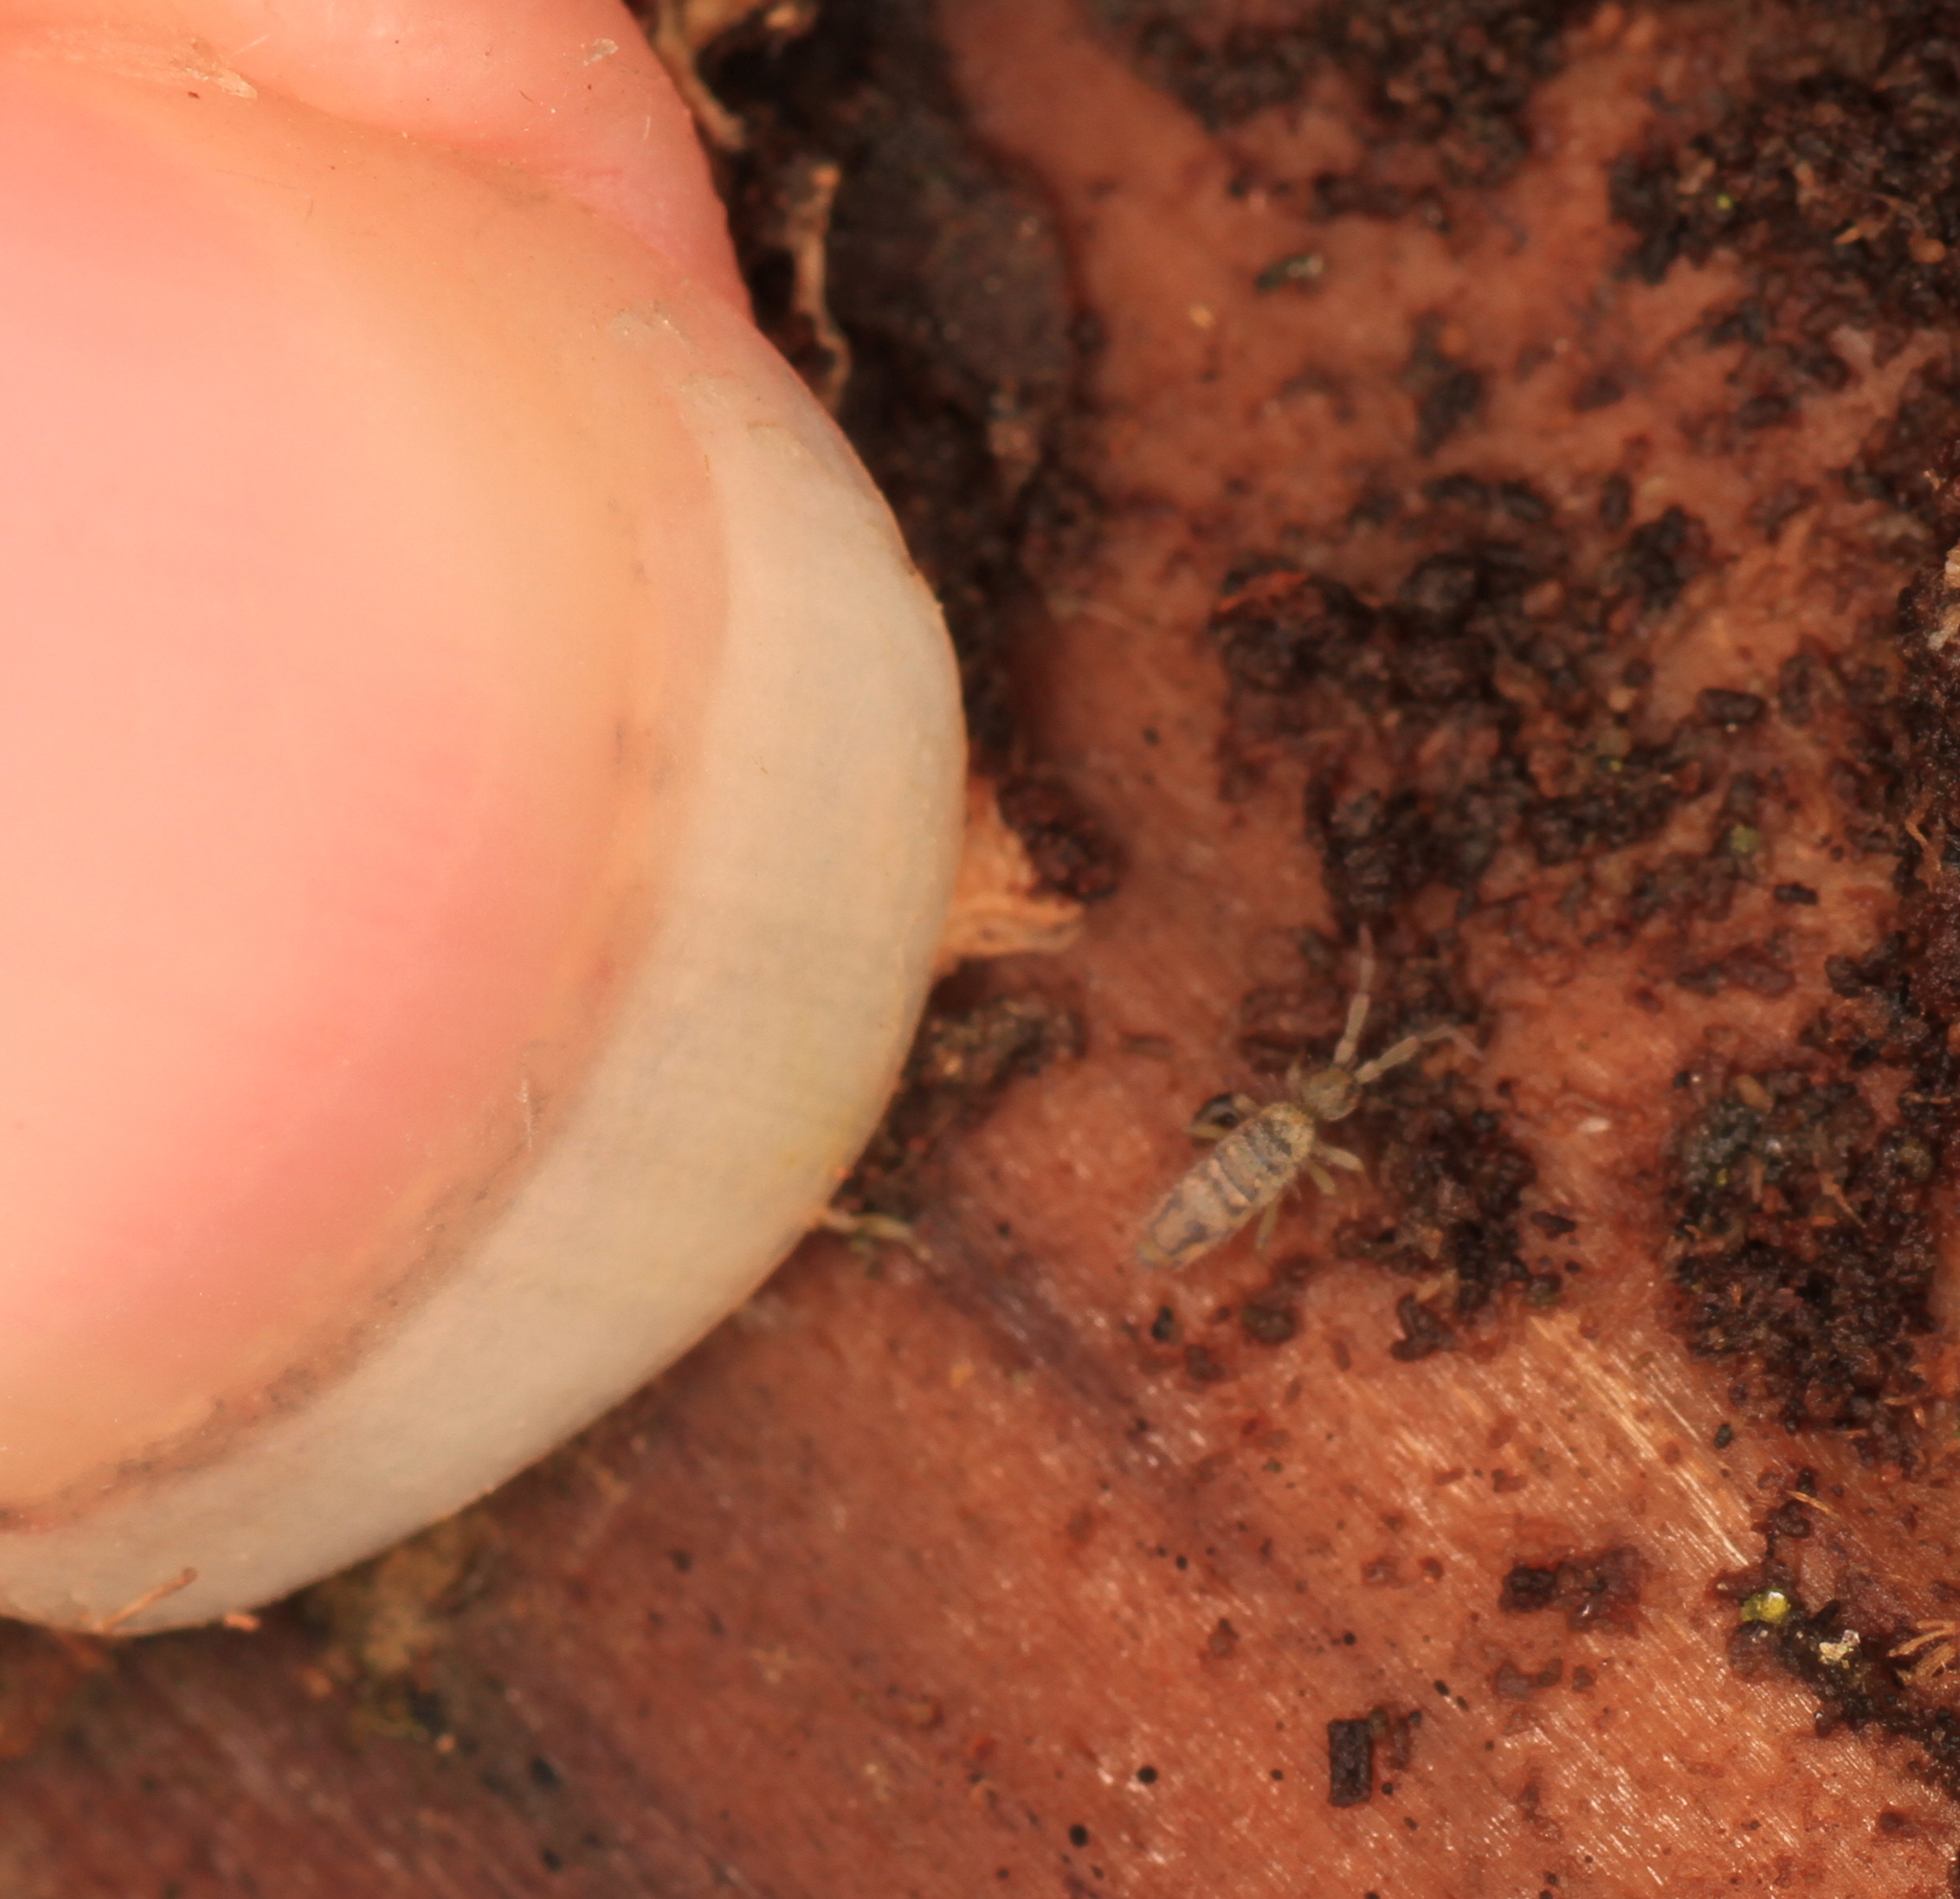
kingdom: Animalia
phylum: Arthropoda
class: Collembola
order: Entomobryomorpha
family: Entomobryidae
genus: Entomobrya
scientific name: Entomobrya nivalis
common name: Cosmopolitan springtail
